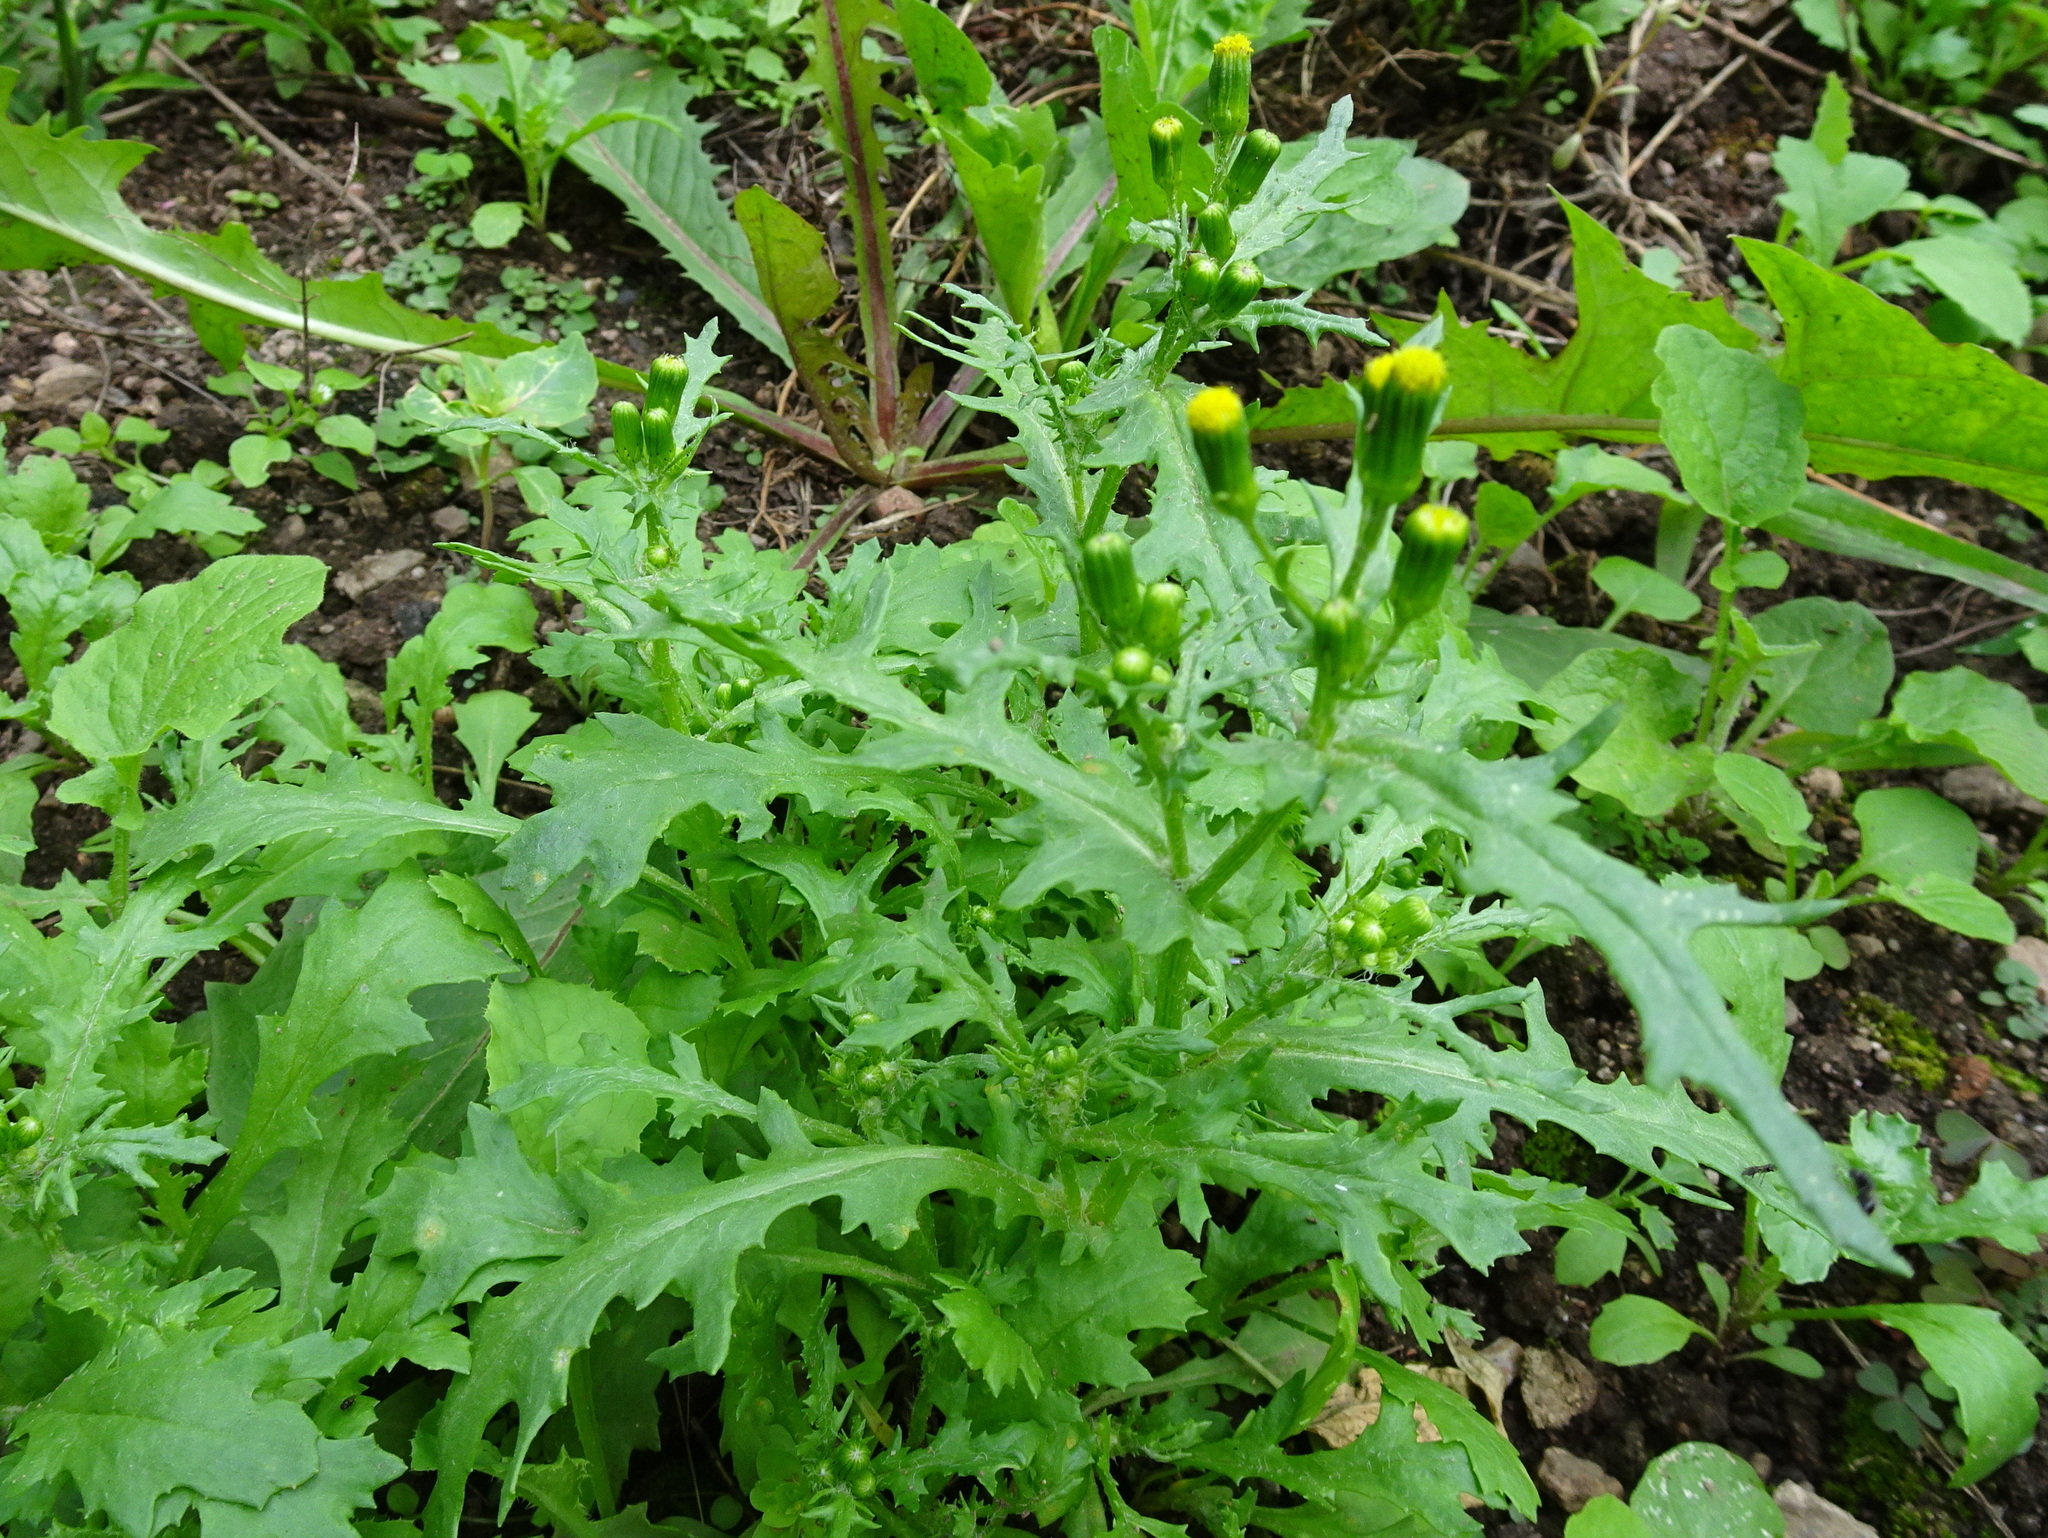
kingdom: Plantae
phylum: Tracheophyta
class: Magnoliopsida
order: Asterales
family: Asteraceae
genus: Senecio
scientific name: Senecio vulgaris
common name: Old-man-in-the-spring
